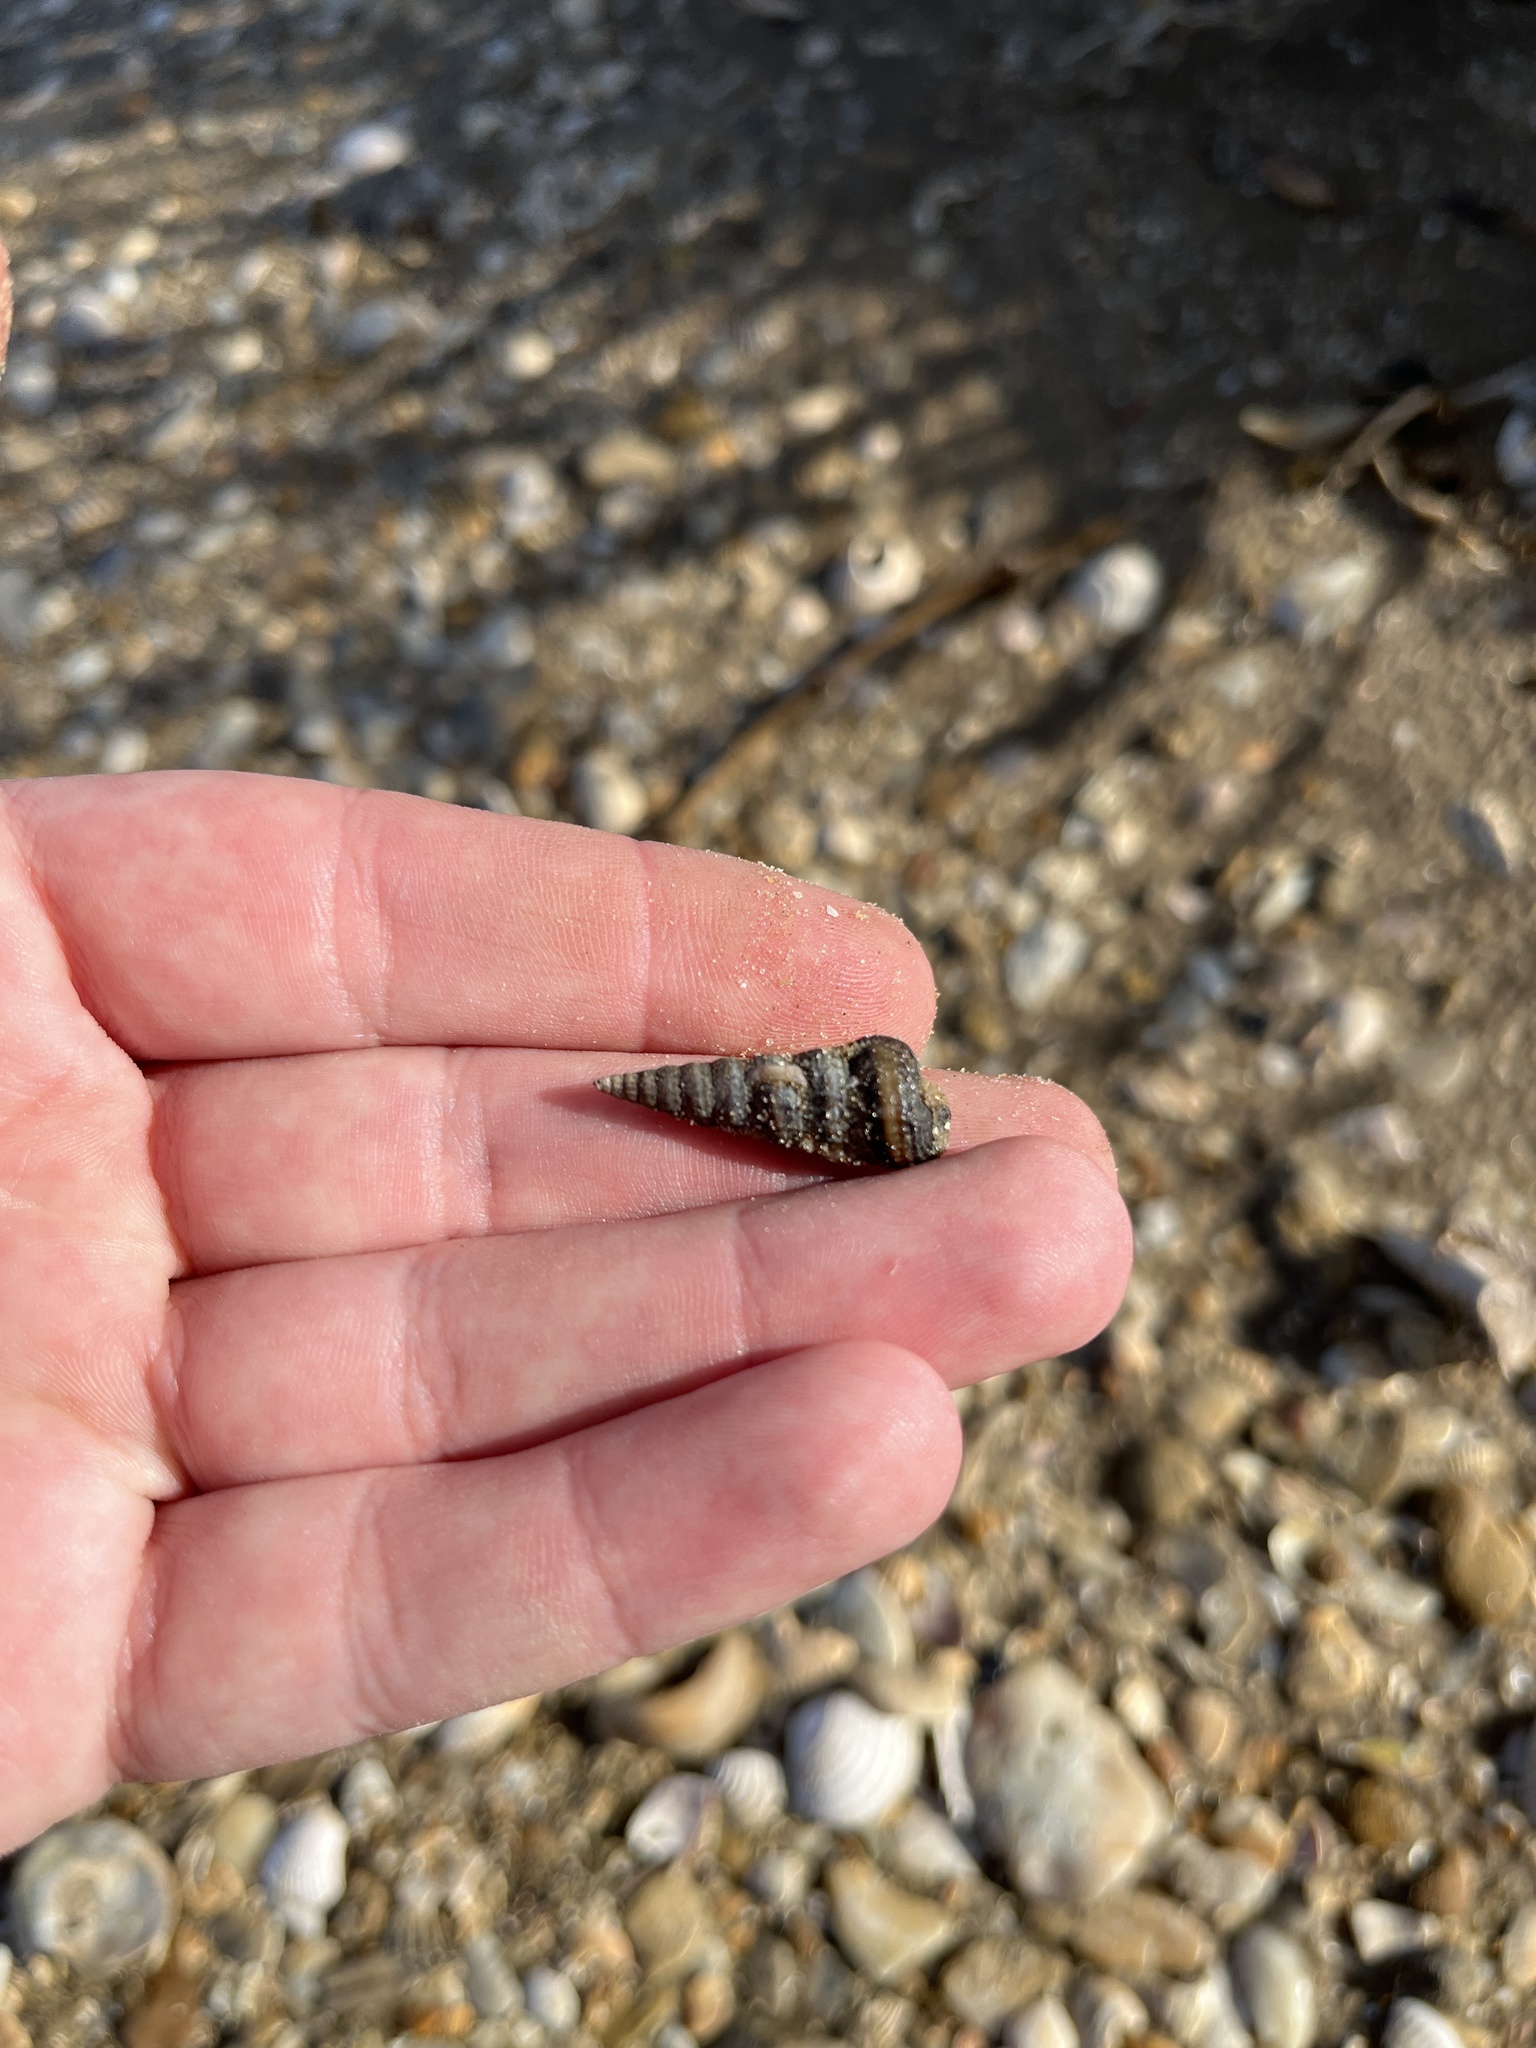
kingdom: Animalia
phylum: Mollusca
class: Gastropoda
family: Potamididae
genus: Cerithideopsis
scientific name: Cerithideopsis scalariformis
